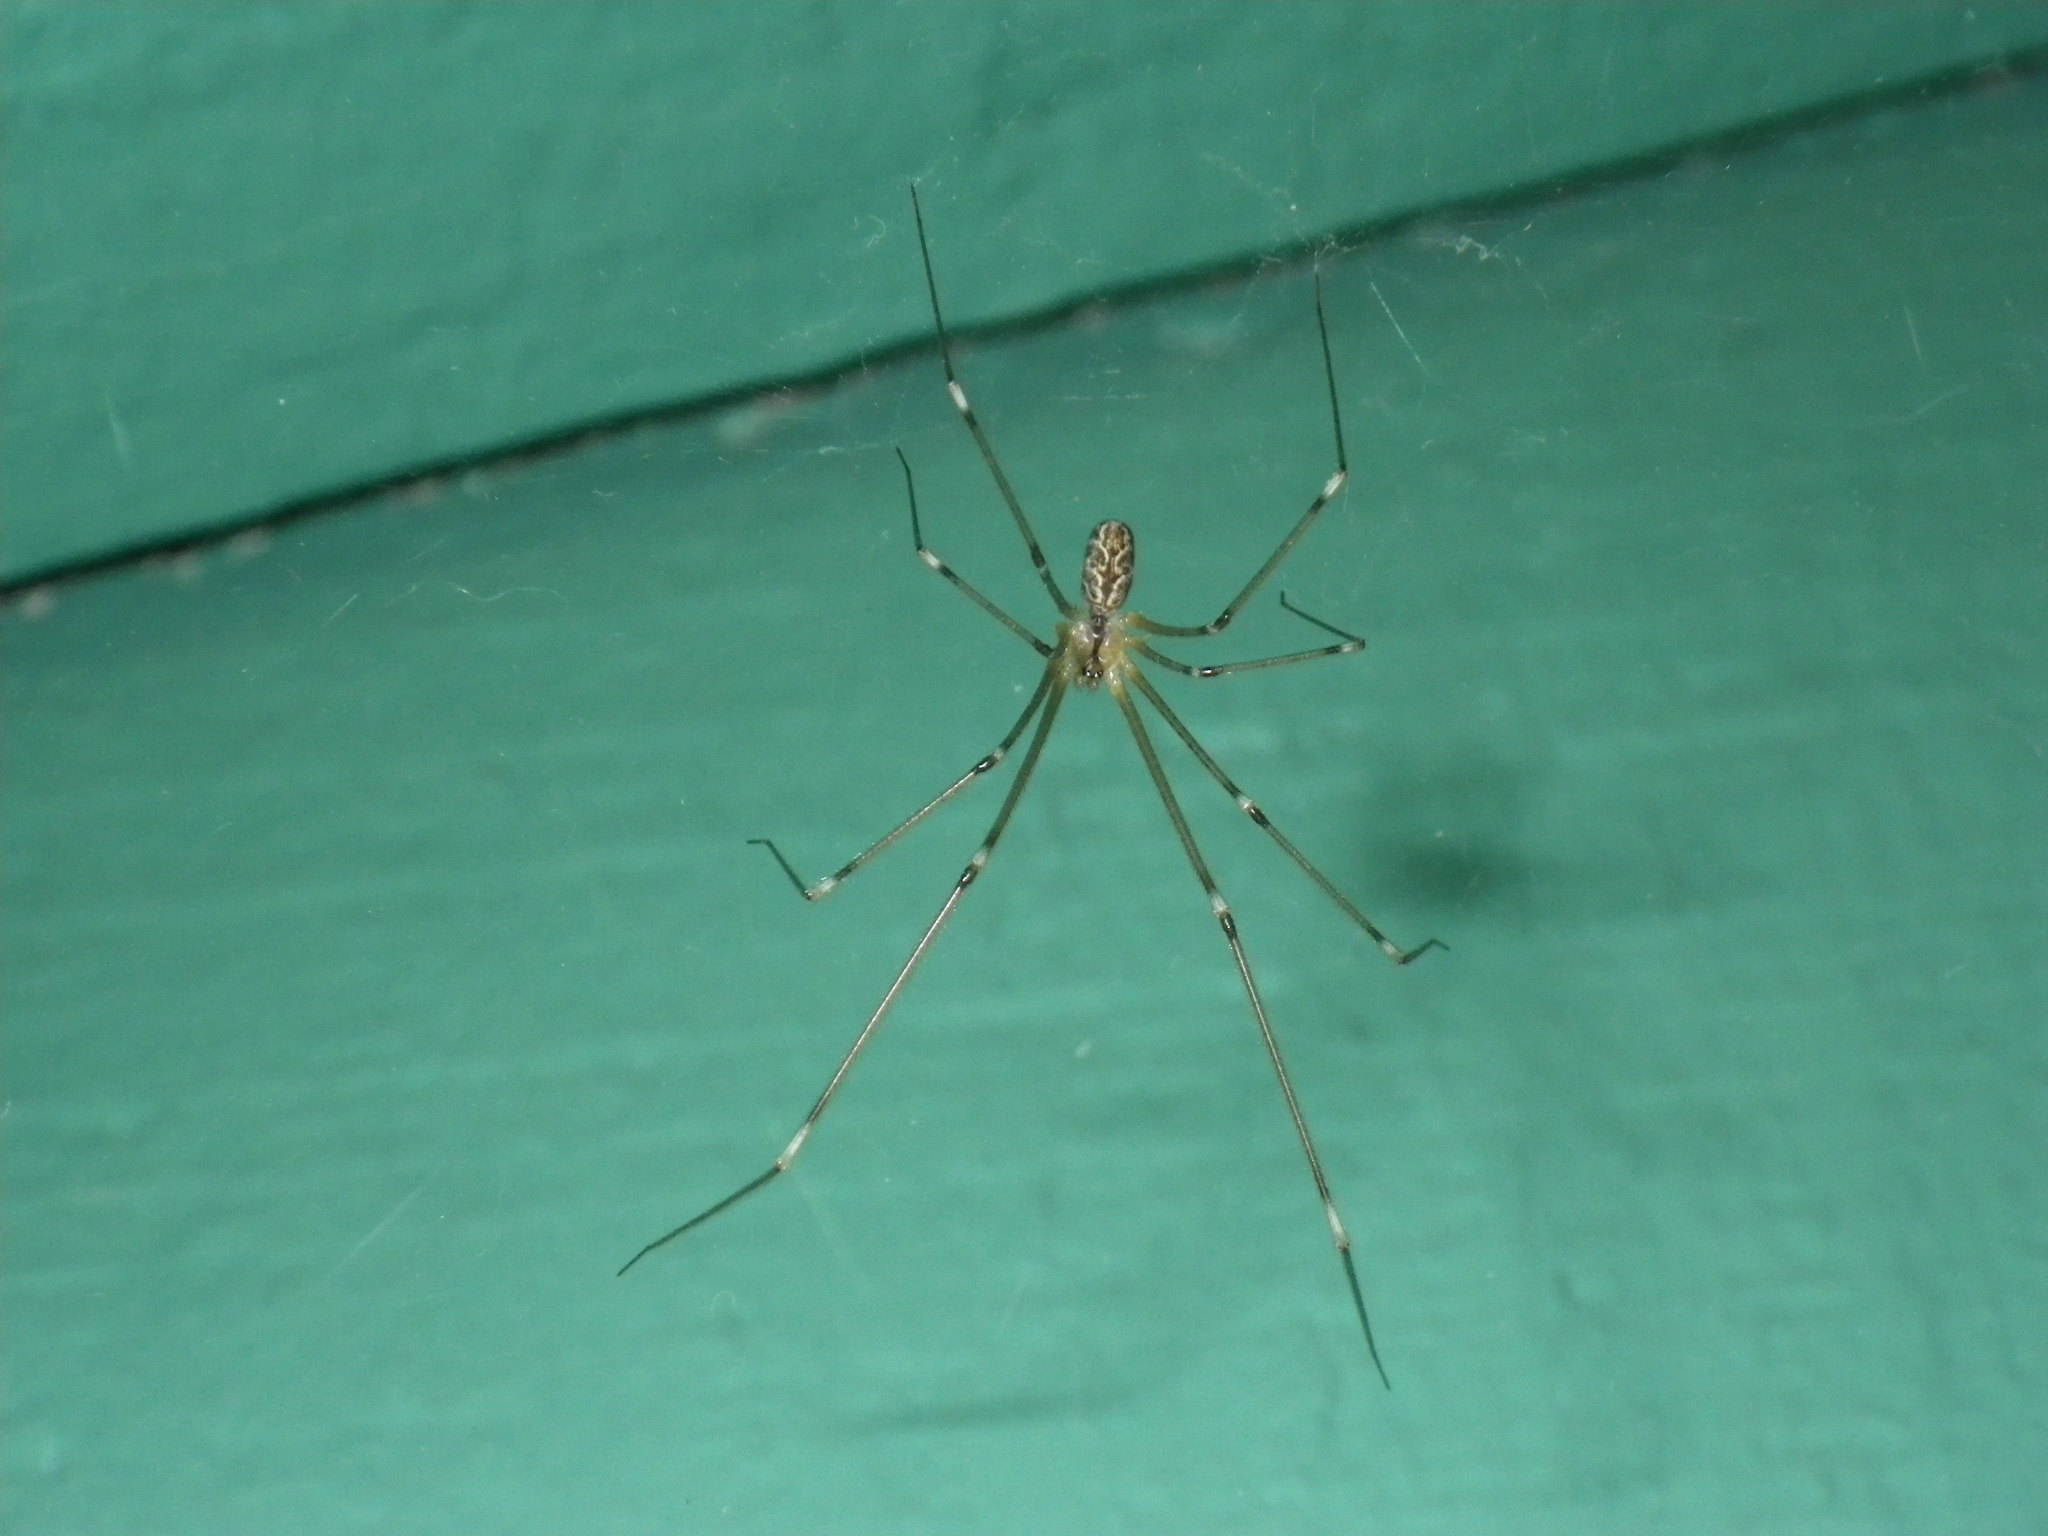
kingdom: Animalia
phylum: Arthropoda
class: Arachnida
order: Araneae
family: Pholcidae
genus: Holocnemus
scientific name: Holocnemus pluchei
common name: Marbled cellar spider
